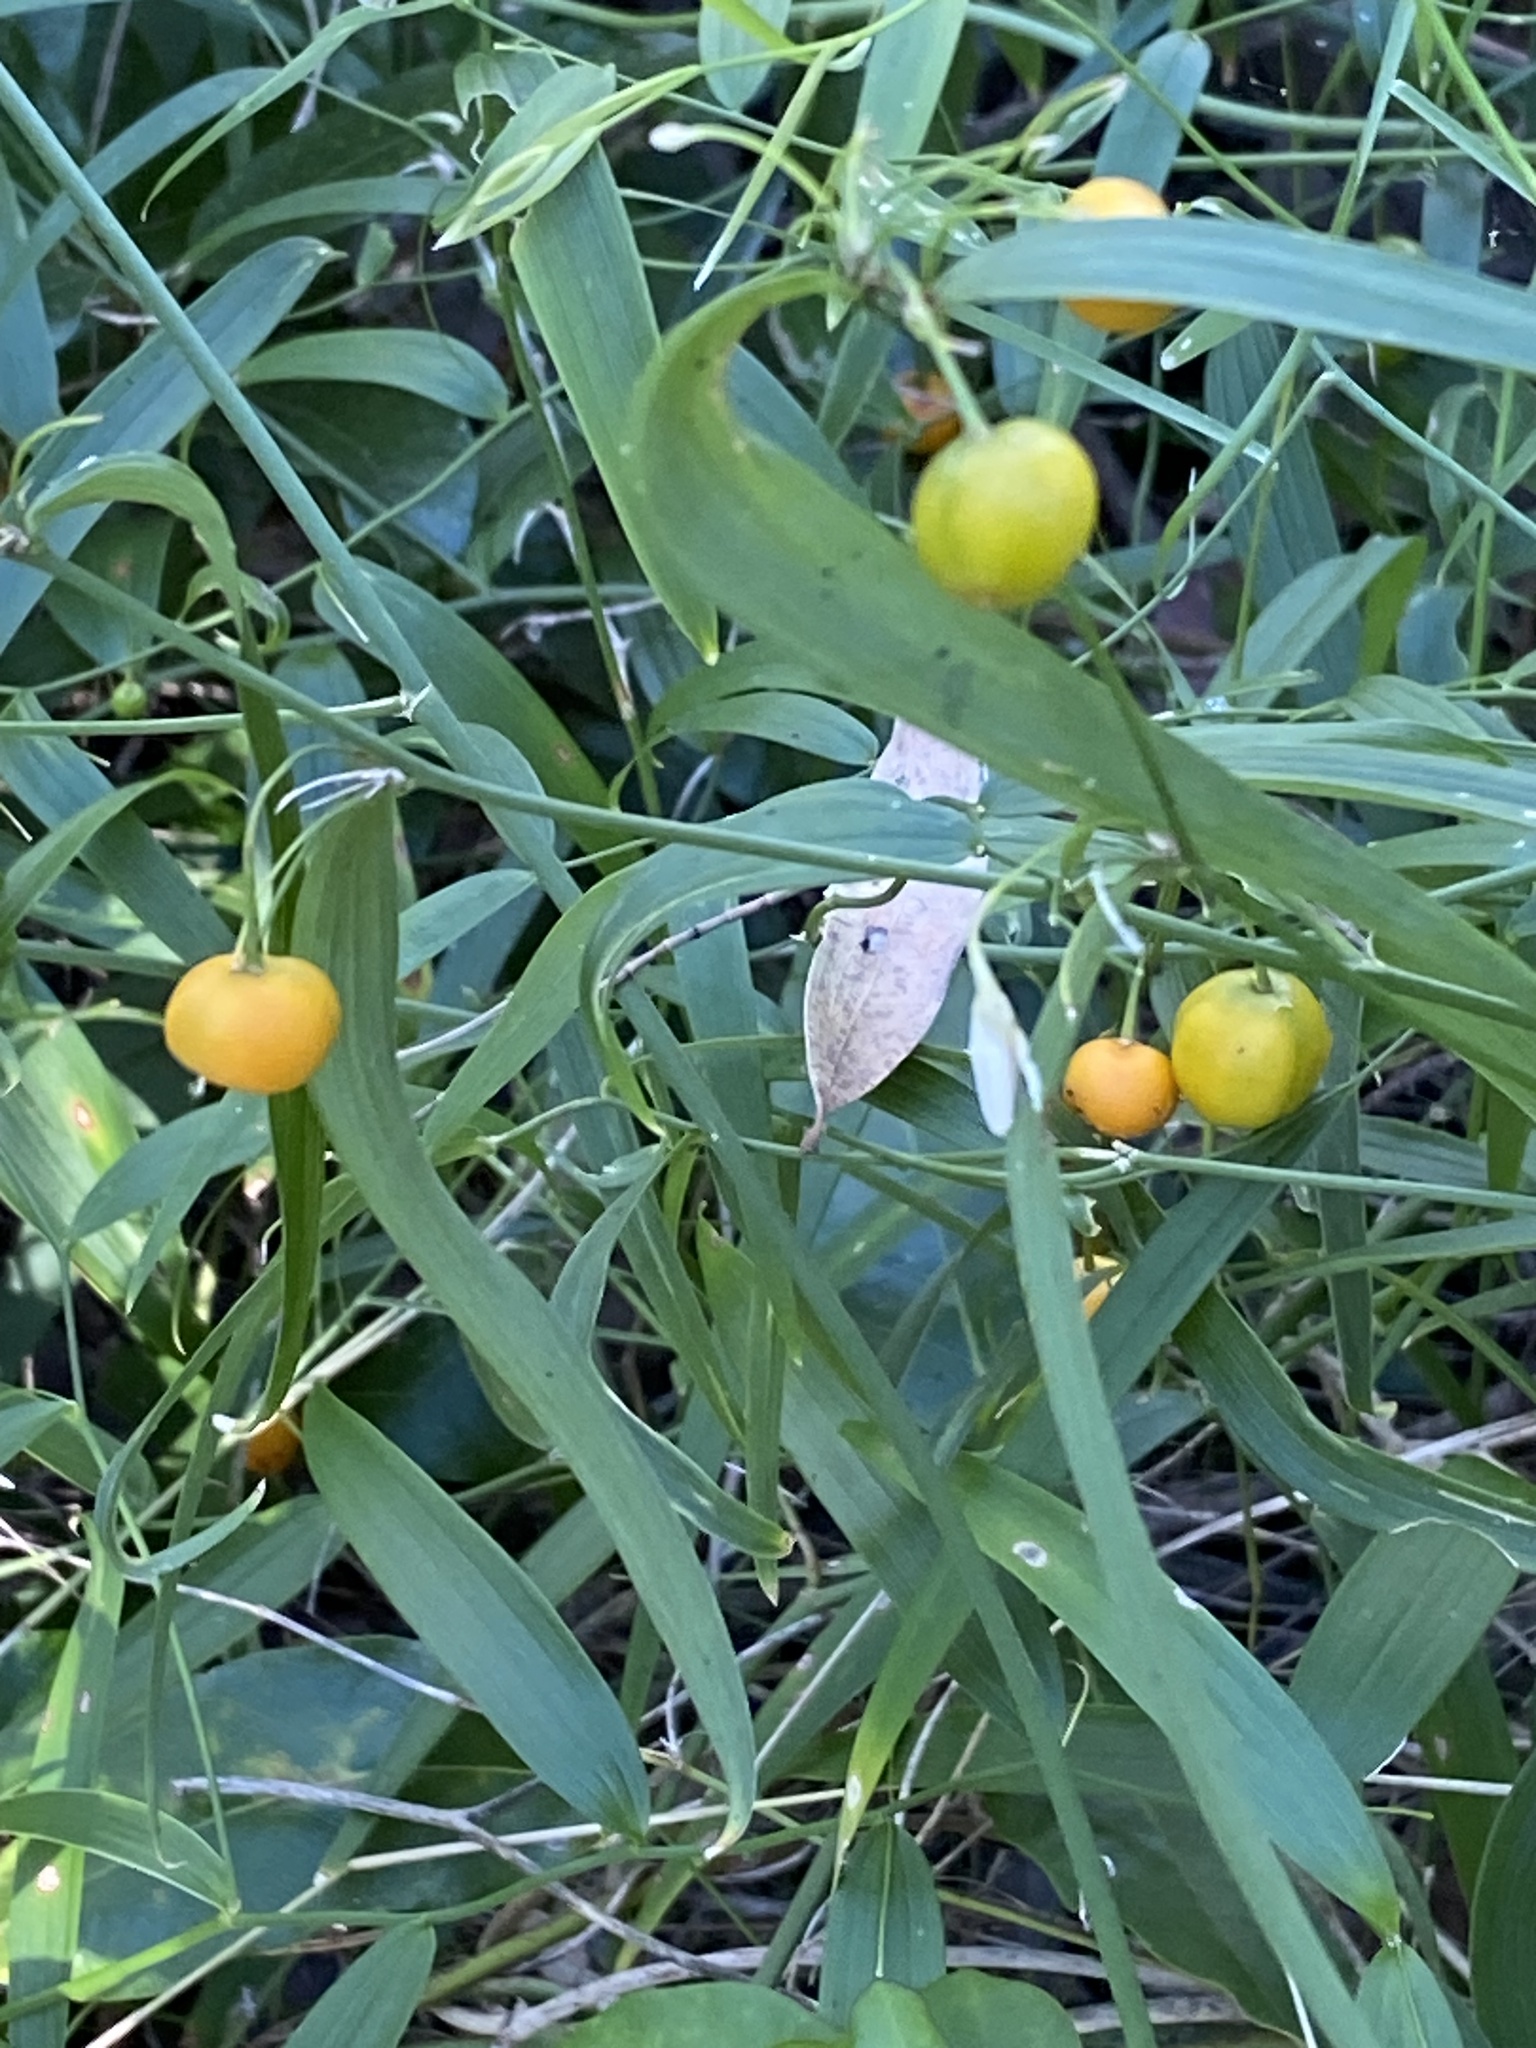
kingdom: Plantae
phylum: Tracheophyta
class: Liliopsida
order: Asparagales
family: Asparagaceae
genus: Eustrephus
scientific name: Eustrephus latifolius
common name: Orangevine
